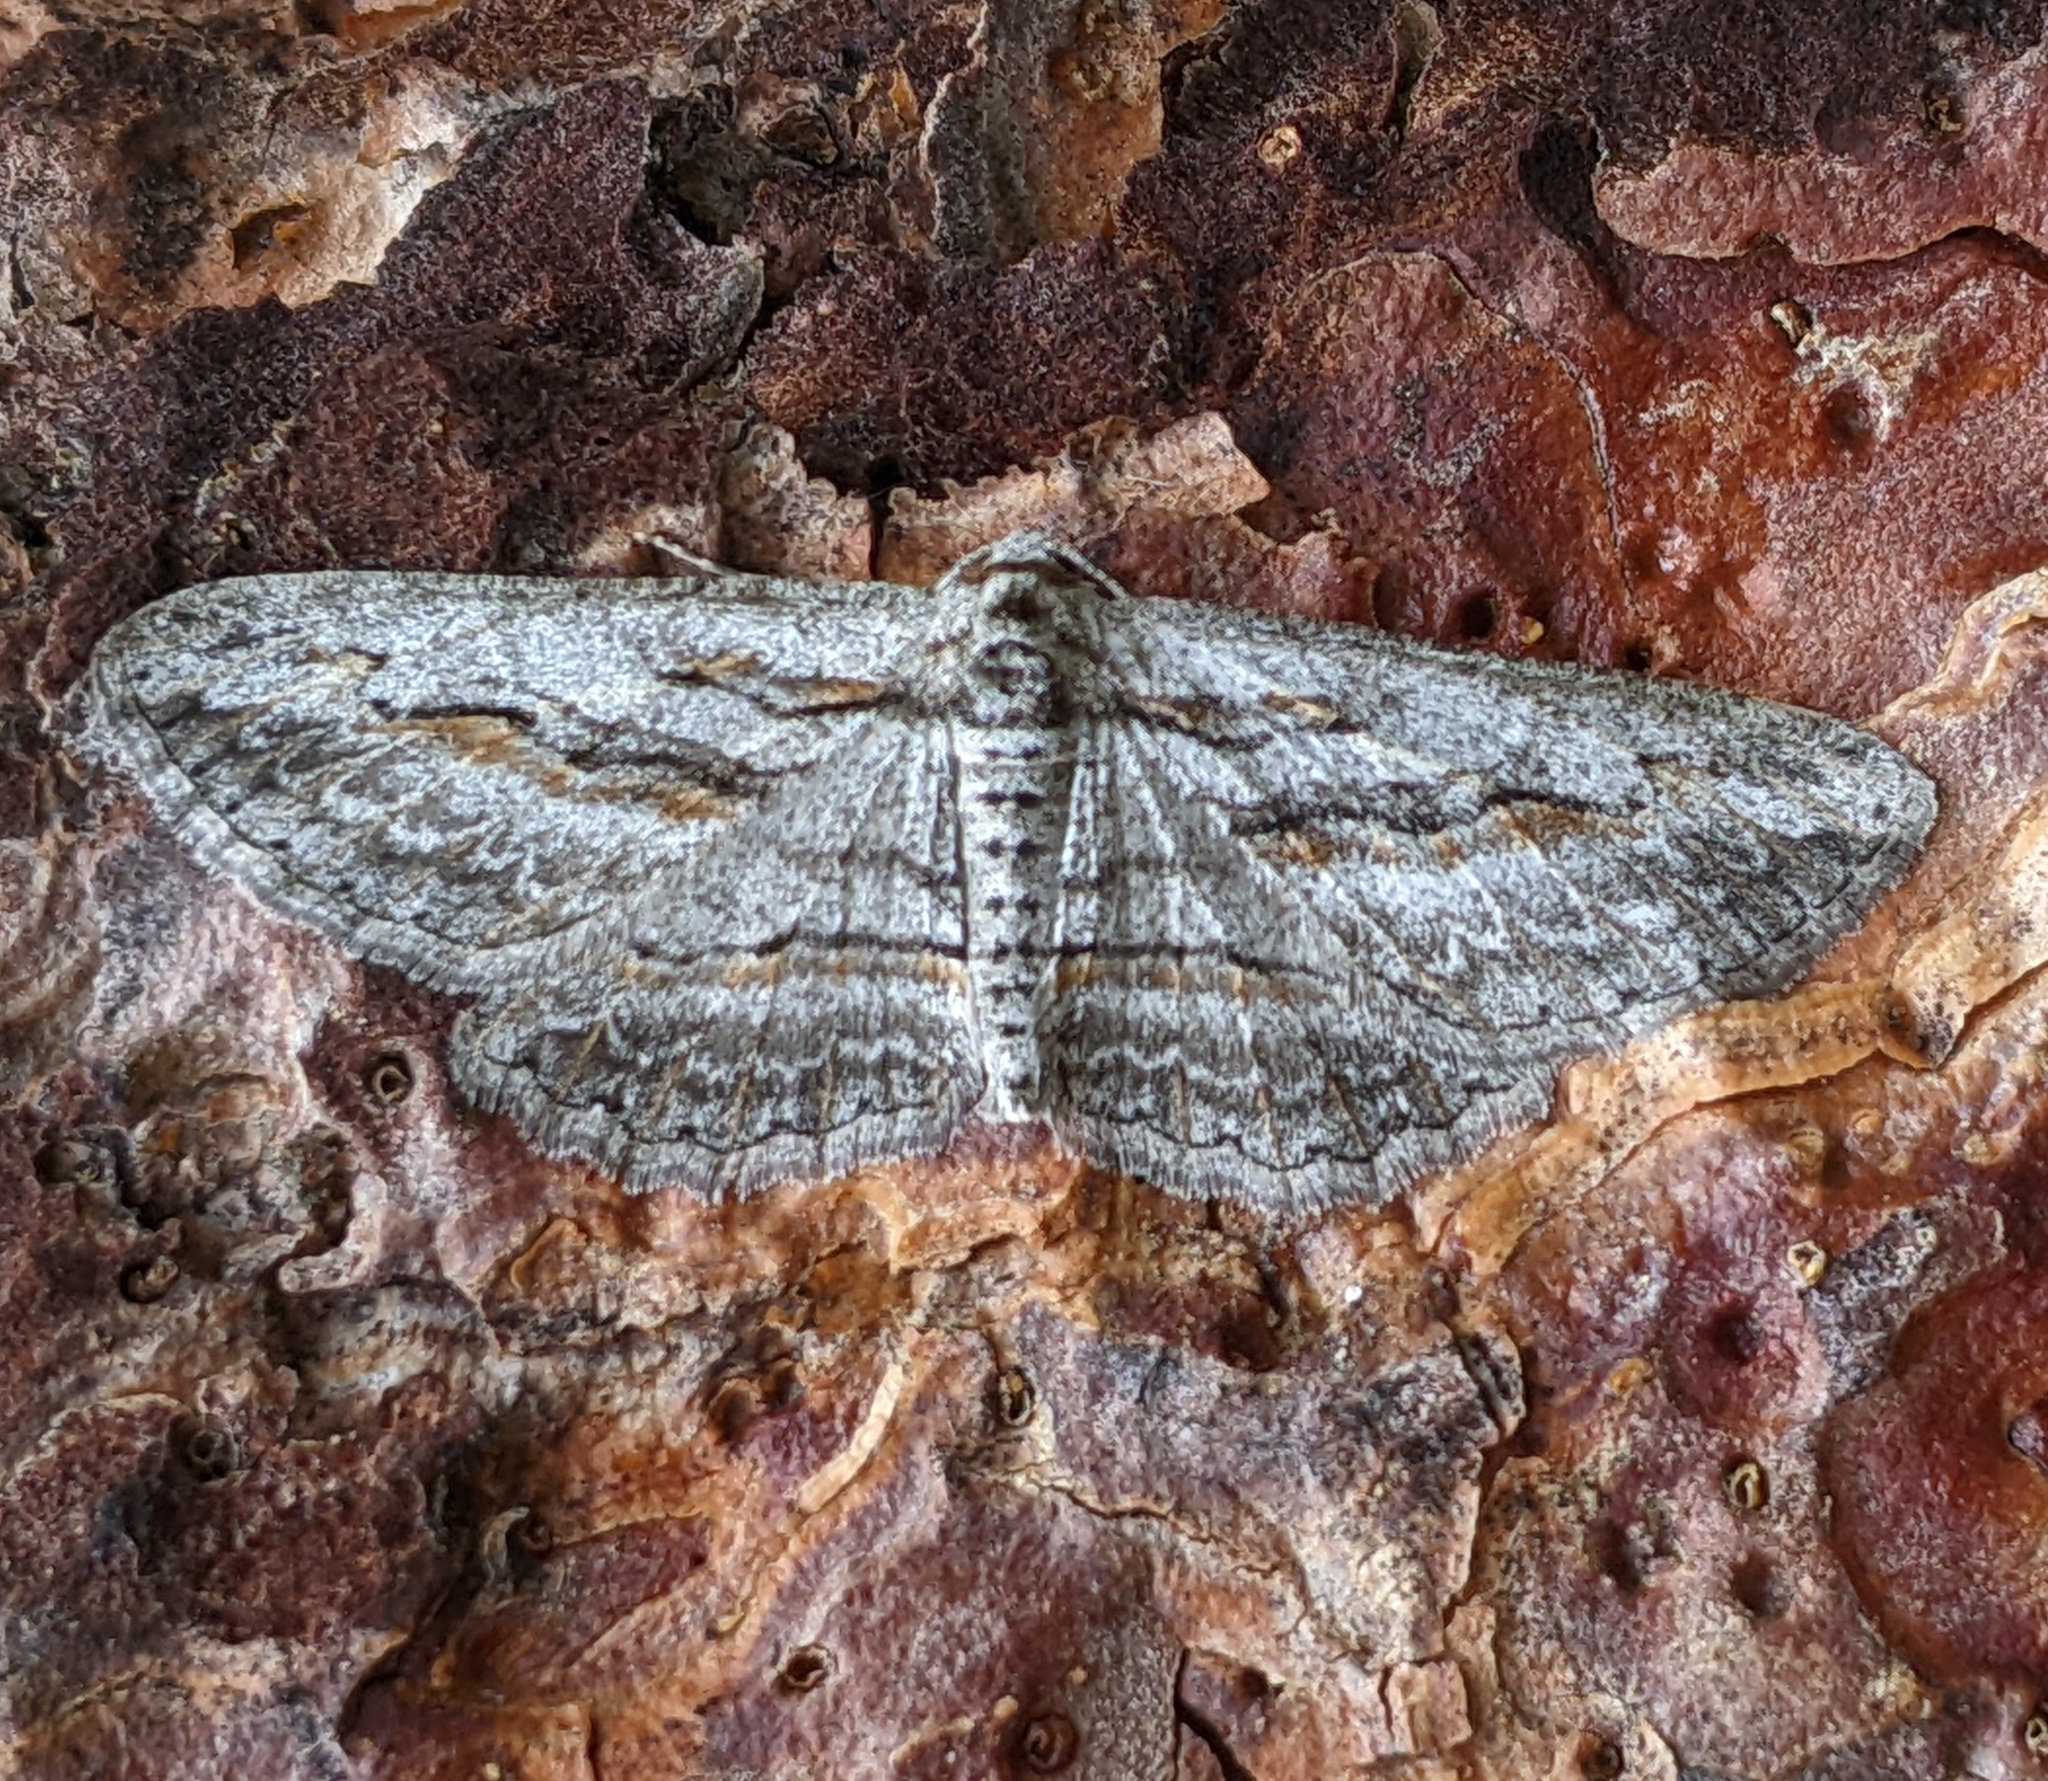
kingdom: Animalia
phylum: Arthropoda
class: Insecta
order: Lepidoptera
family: Geometridae
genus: Anavitrinella
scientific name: Anavitrinella pampinaria
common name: Common gray
